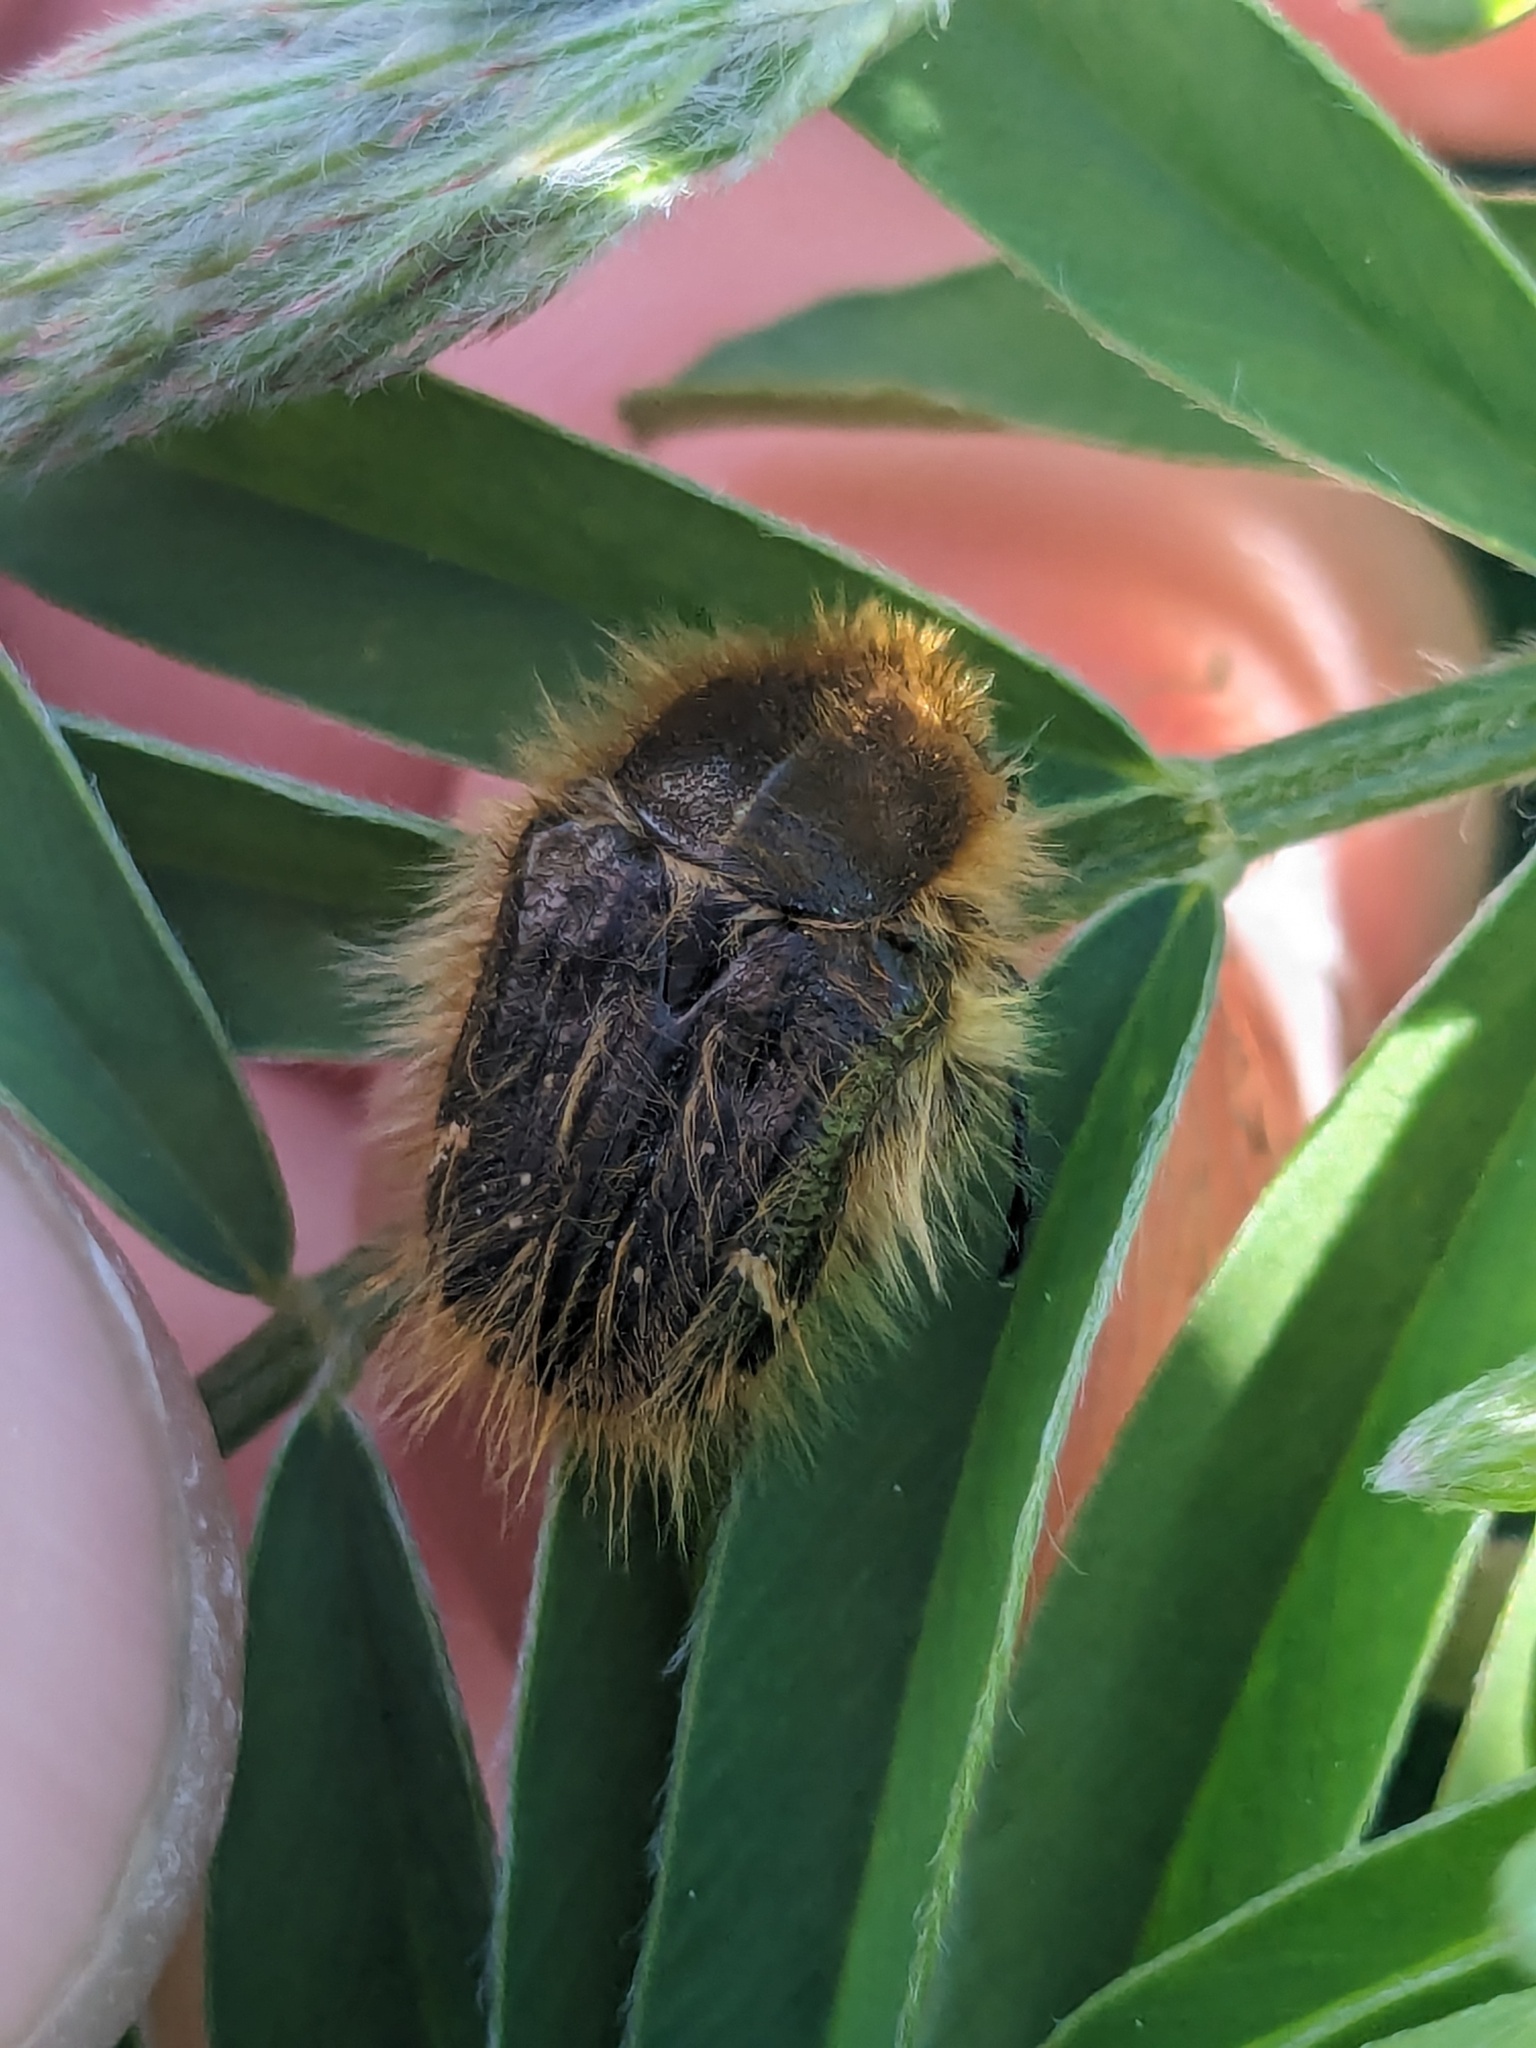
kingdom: Animalia
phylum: Arthropoda
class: Insecta
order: Coleoptera
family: Scarabaeidae
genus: Tropinota
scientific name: Tropinota squalida
